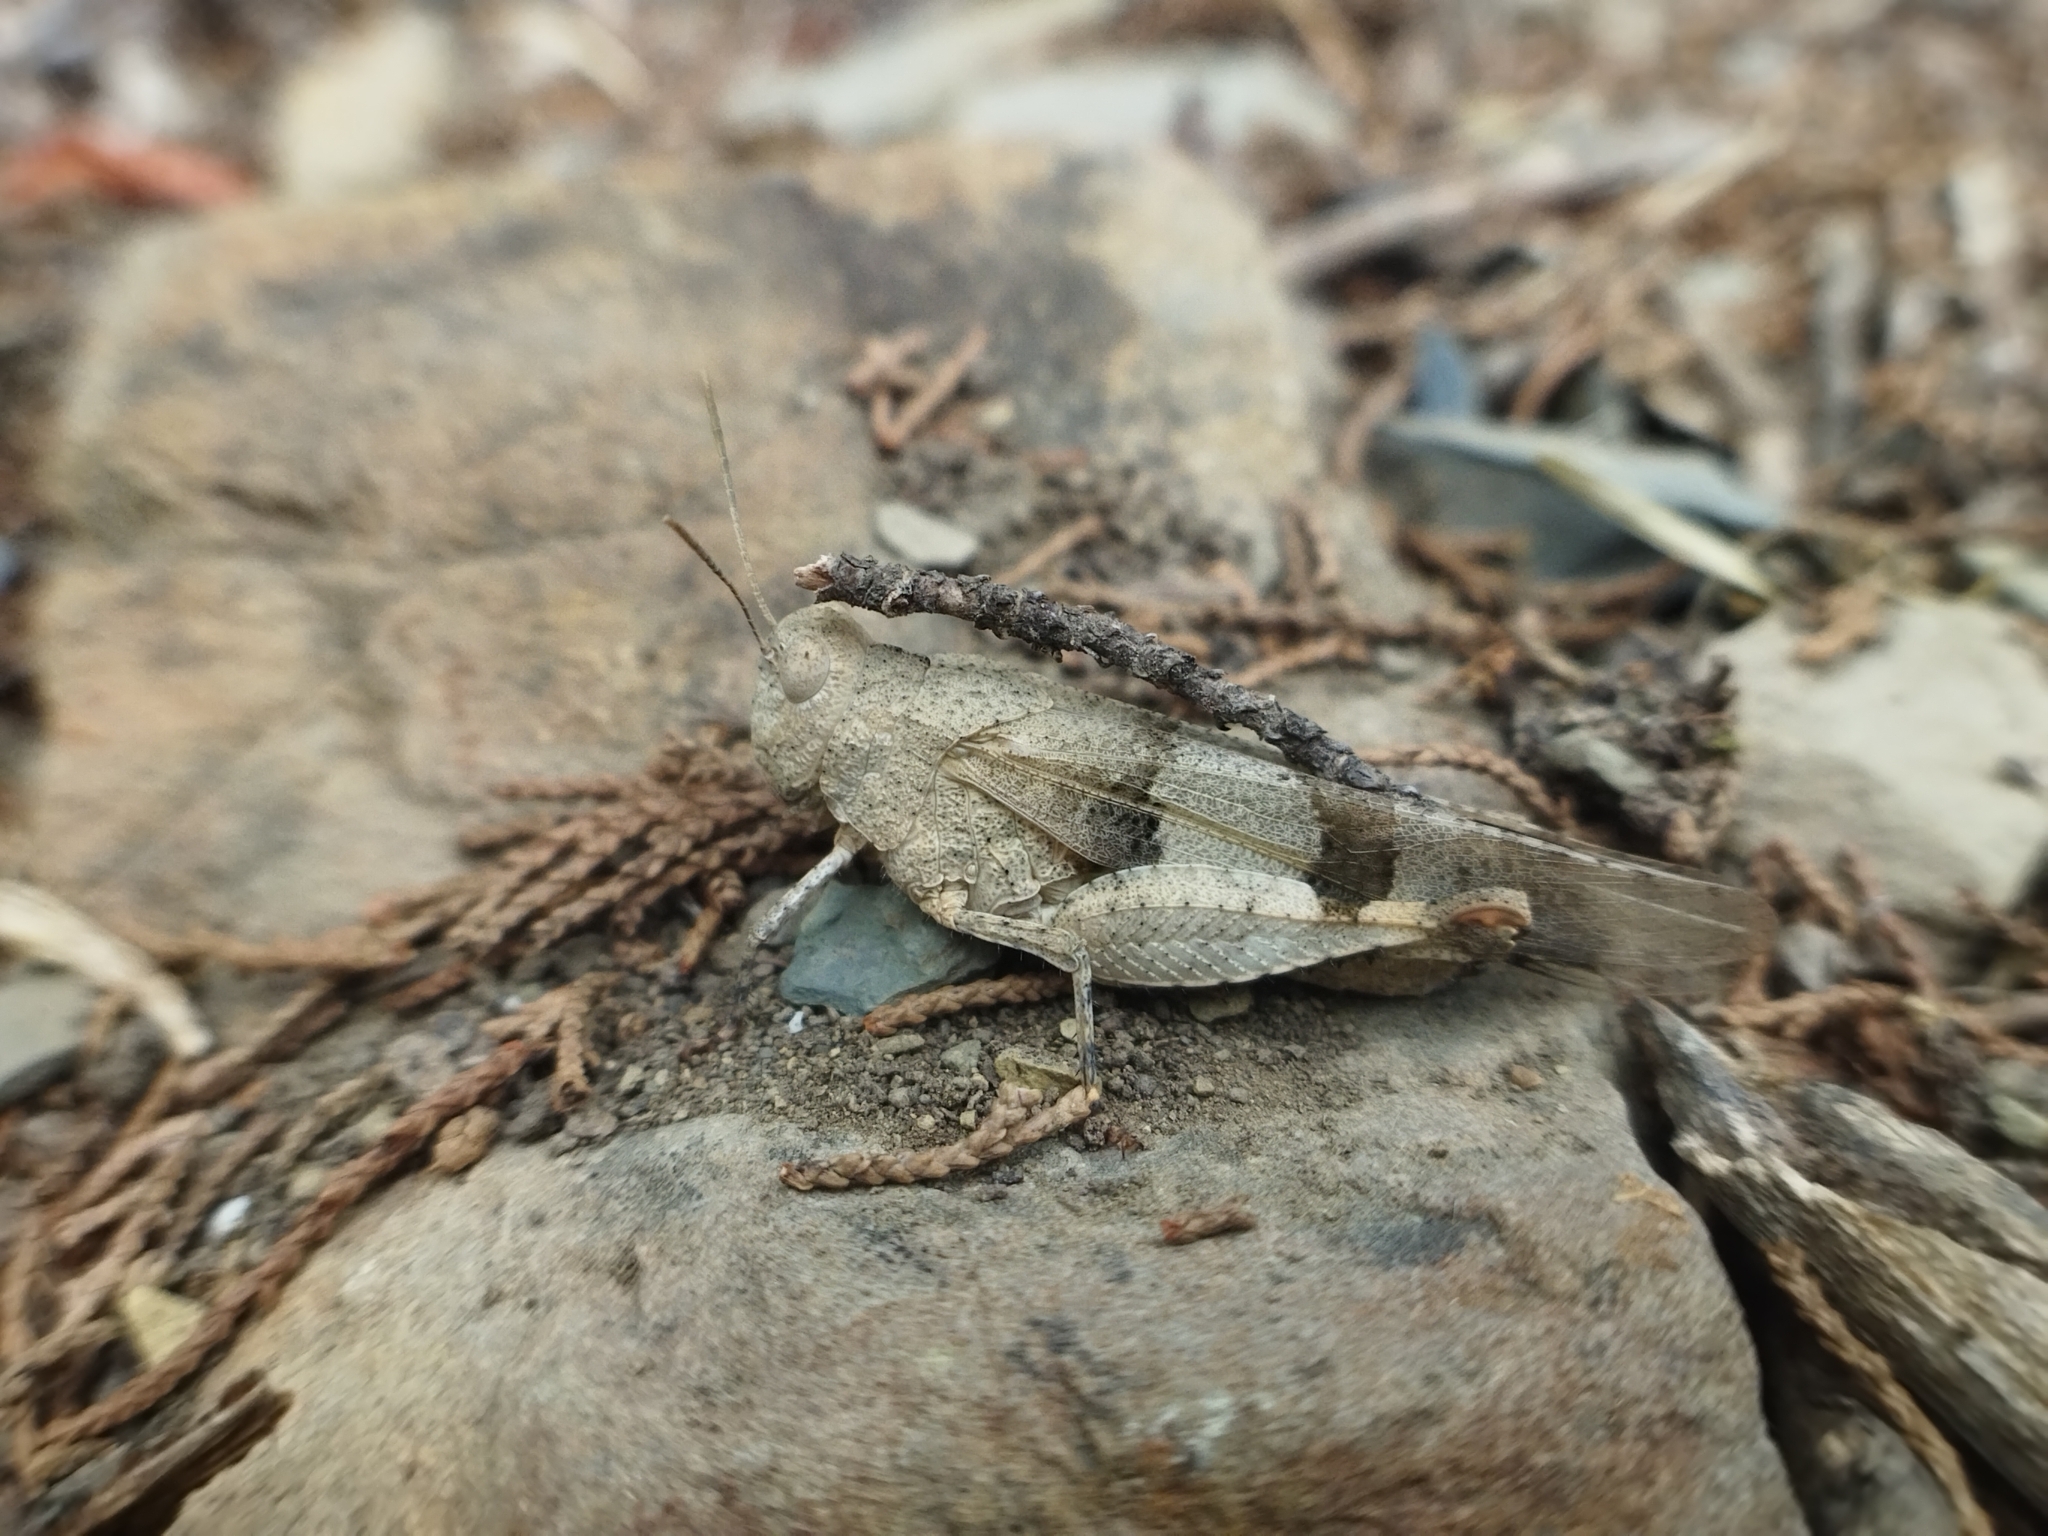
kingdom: Animalia
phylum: Arthropoda
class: Insecta
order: Orthoptera
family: Acrididae
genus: Oedipoda
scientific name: Oedipoda caerulescens
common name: Blue-winged grasshopper
